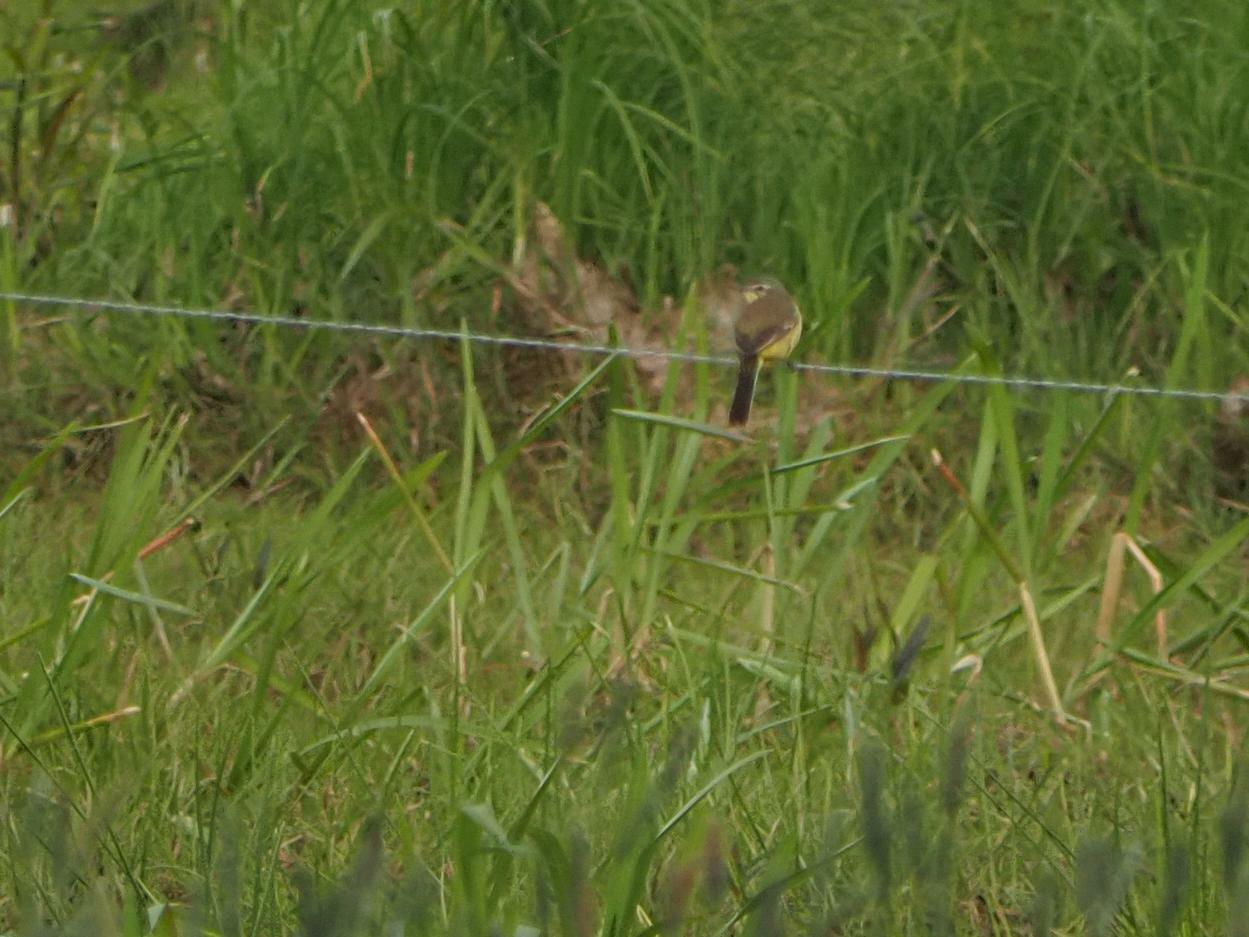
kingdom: Animalia
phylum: Chordata
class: Aves
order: Passeriformes
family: Motacillidae
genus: Motacilla
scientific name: Motacilla flava
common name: Western yellow wagtail
